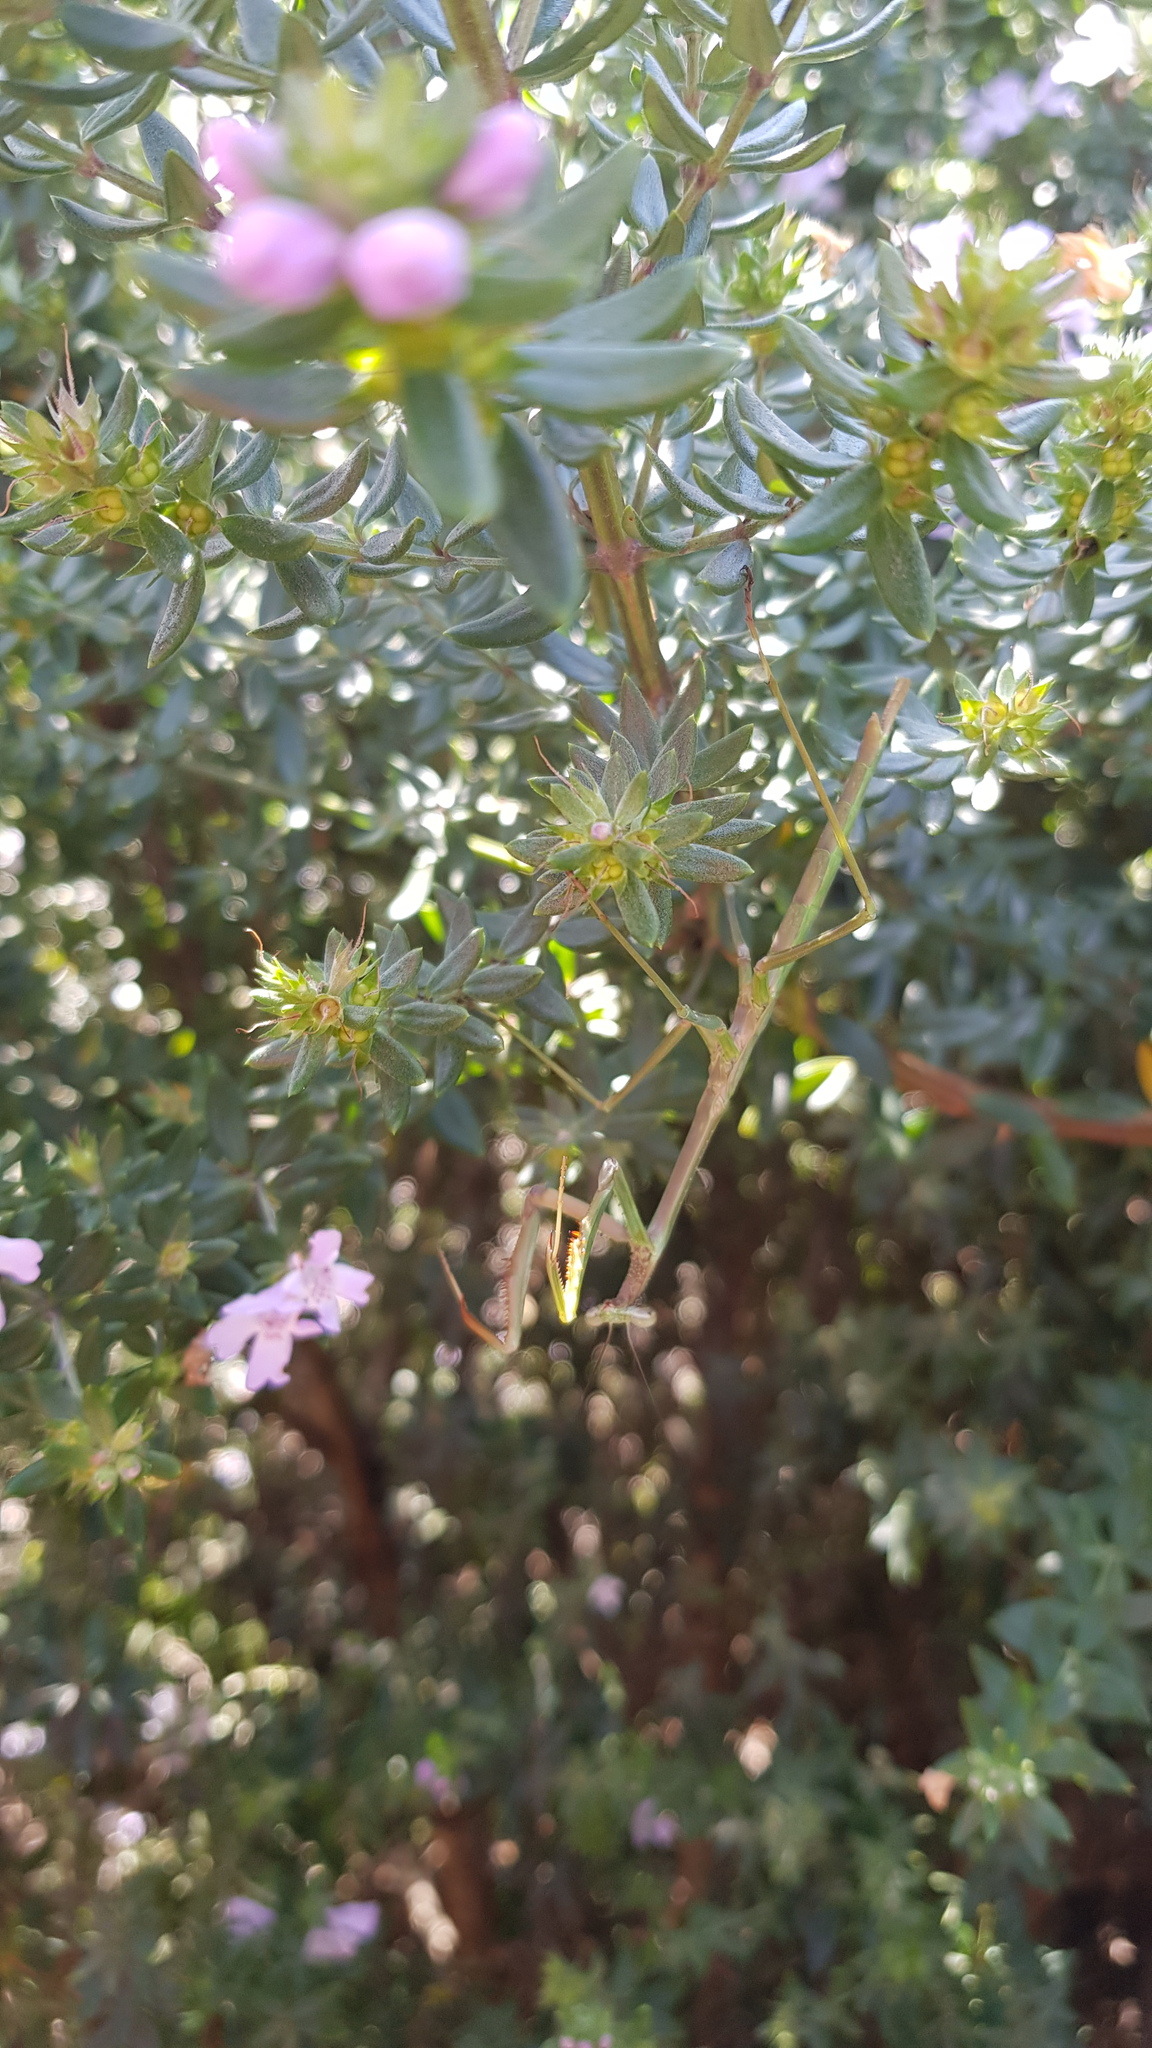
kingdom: Animalia
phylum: Arthropoda
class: Insecta
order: Mantodea
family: Mantidae
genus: Archimantis
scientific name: Archimantis latistyla
